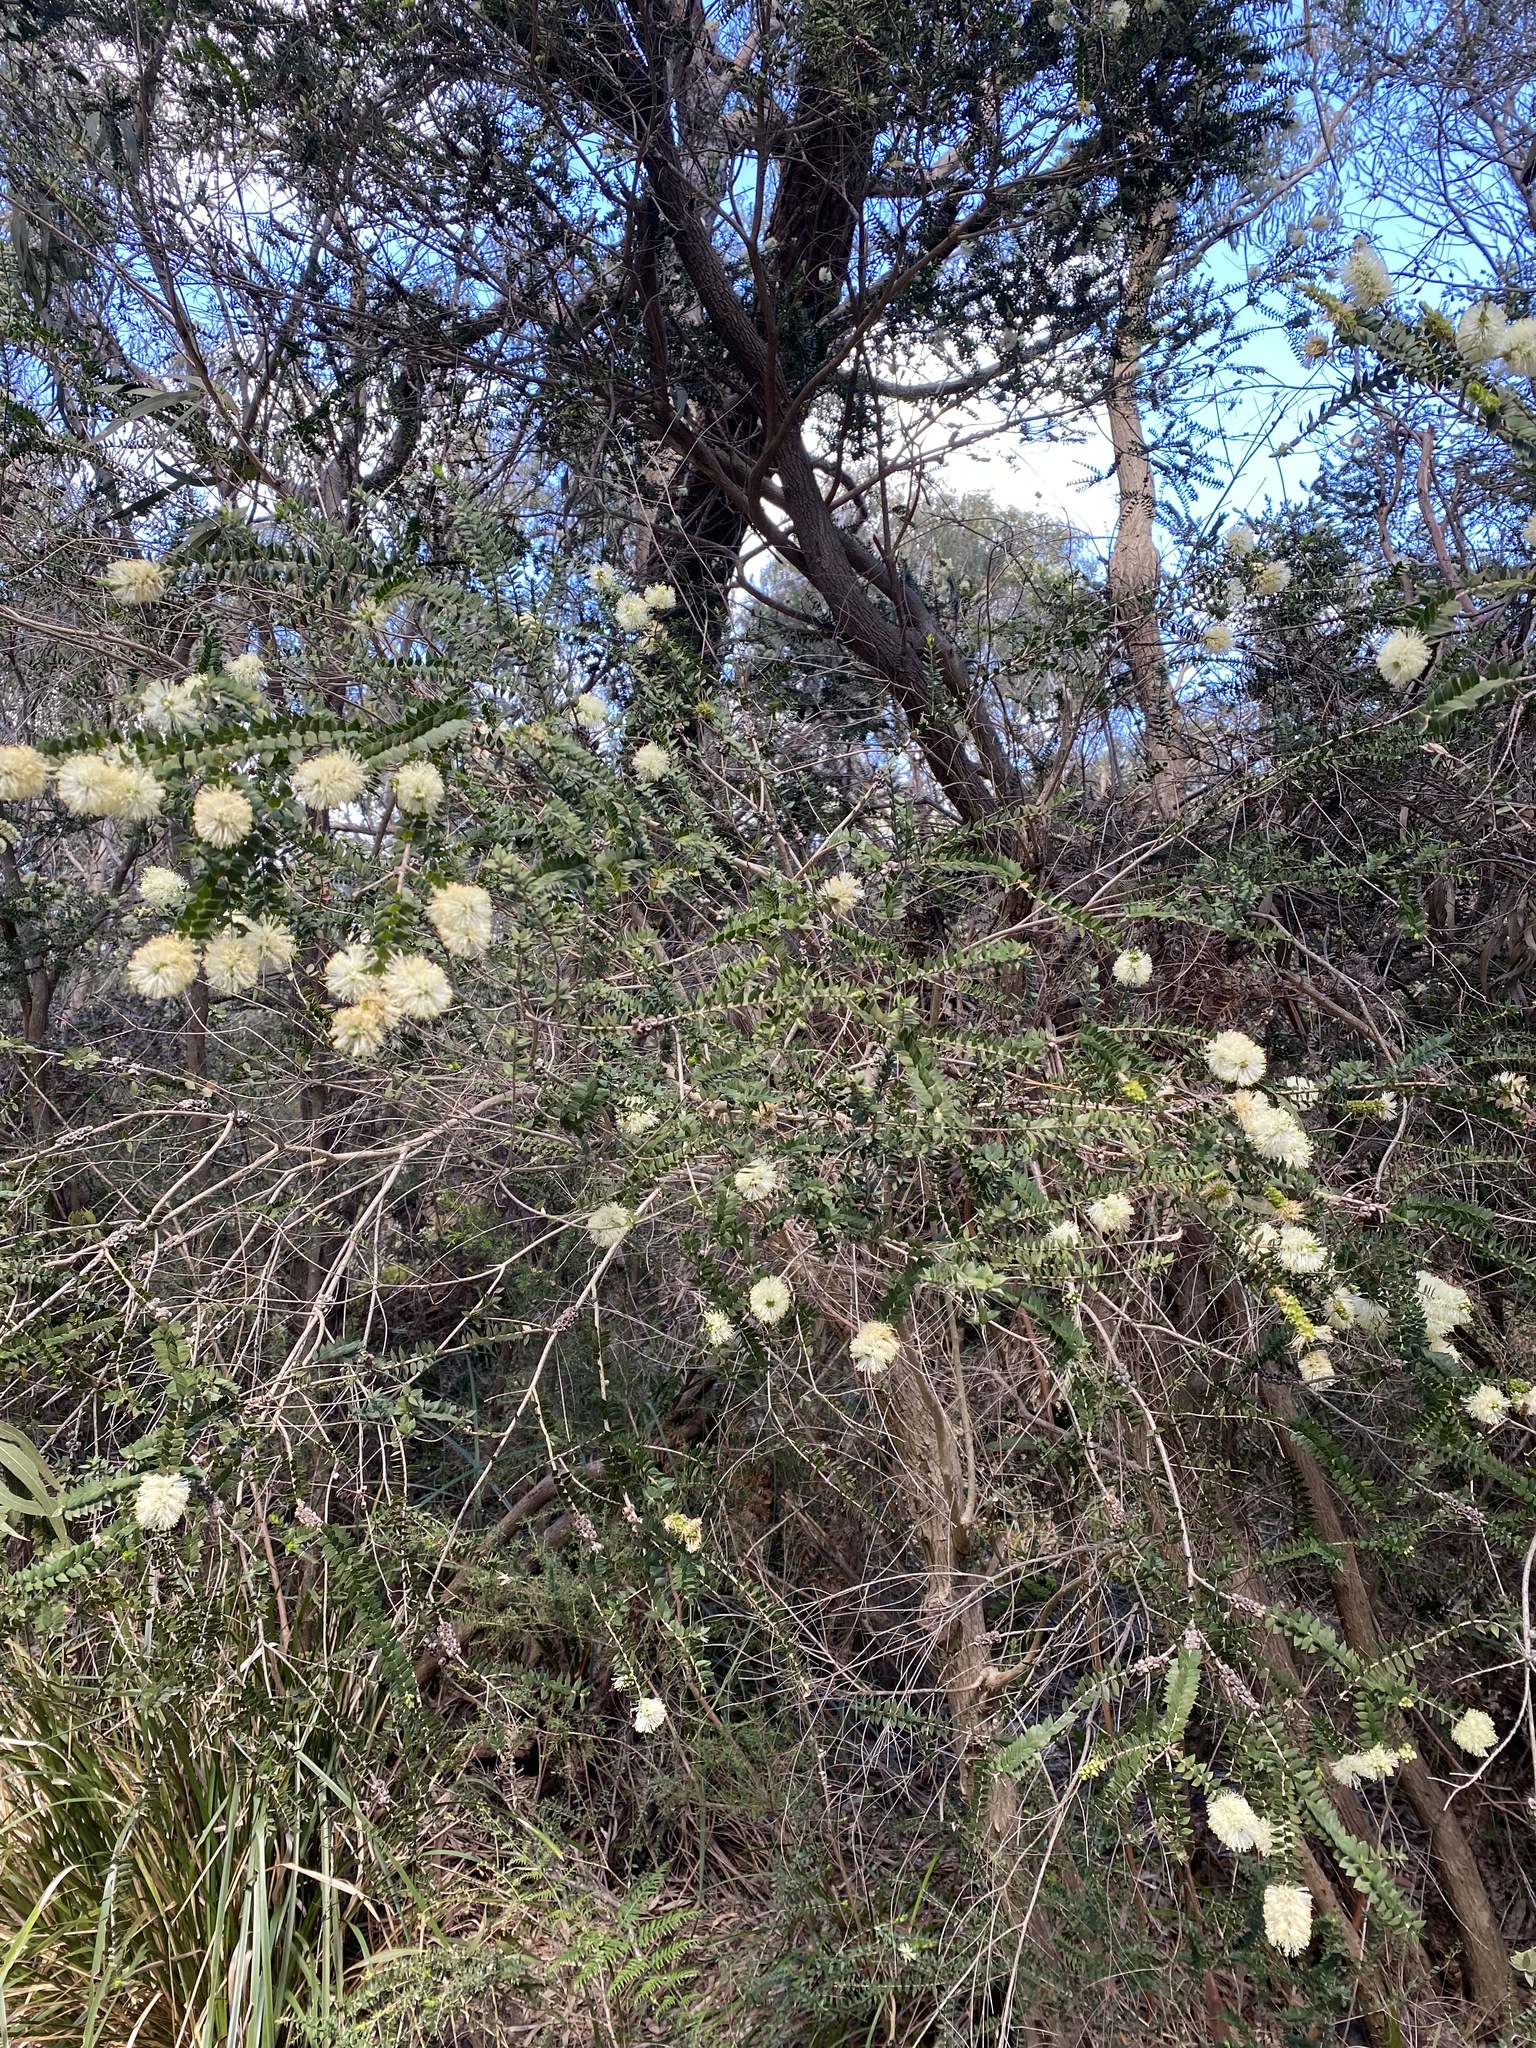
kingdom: Plantae
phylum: Tracheophyta
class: Magnoliopsida
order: Myrtales
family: Myrtaceae
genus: Melaleuca
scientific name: Melaleuca squarrosa
